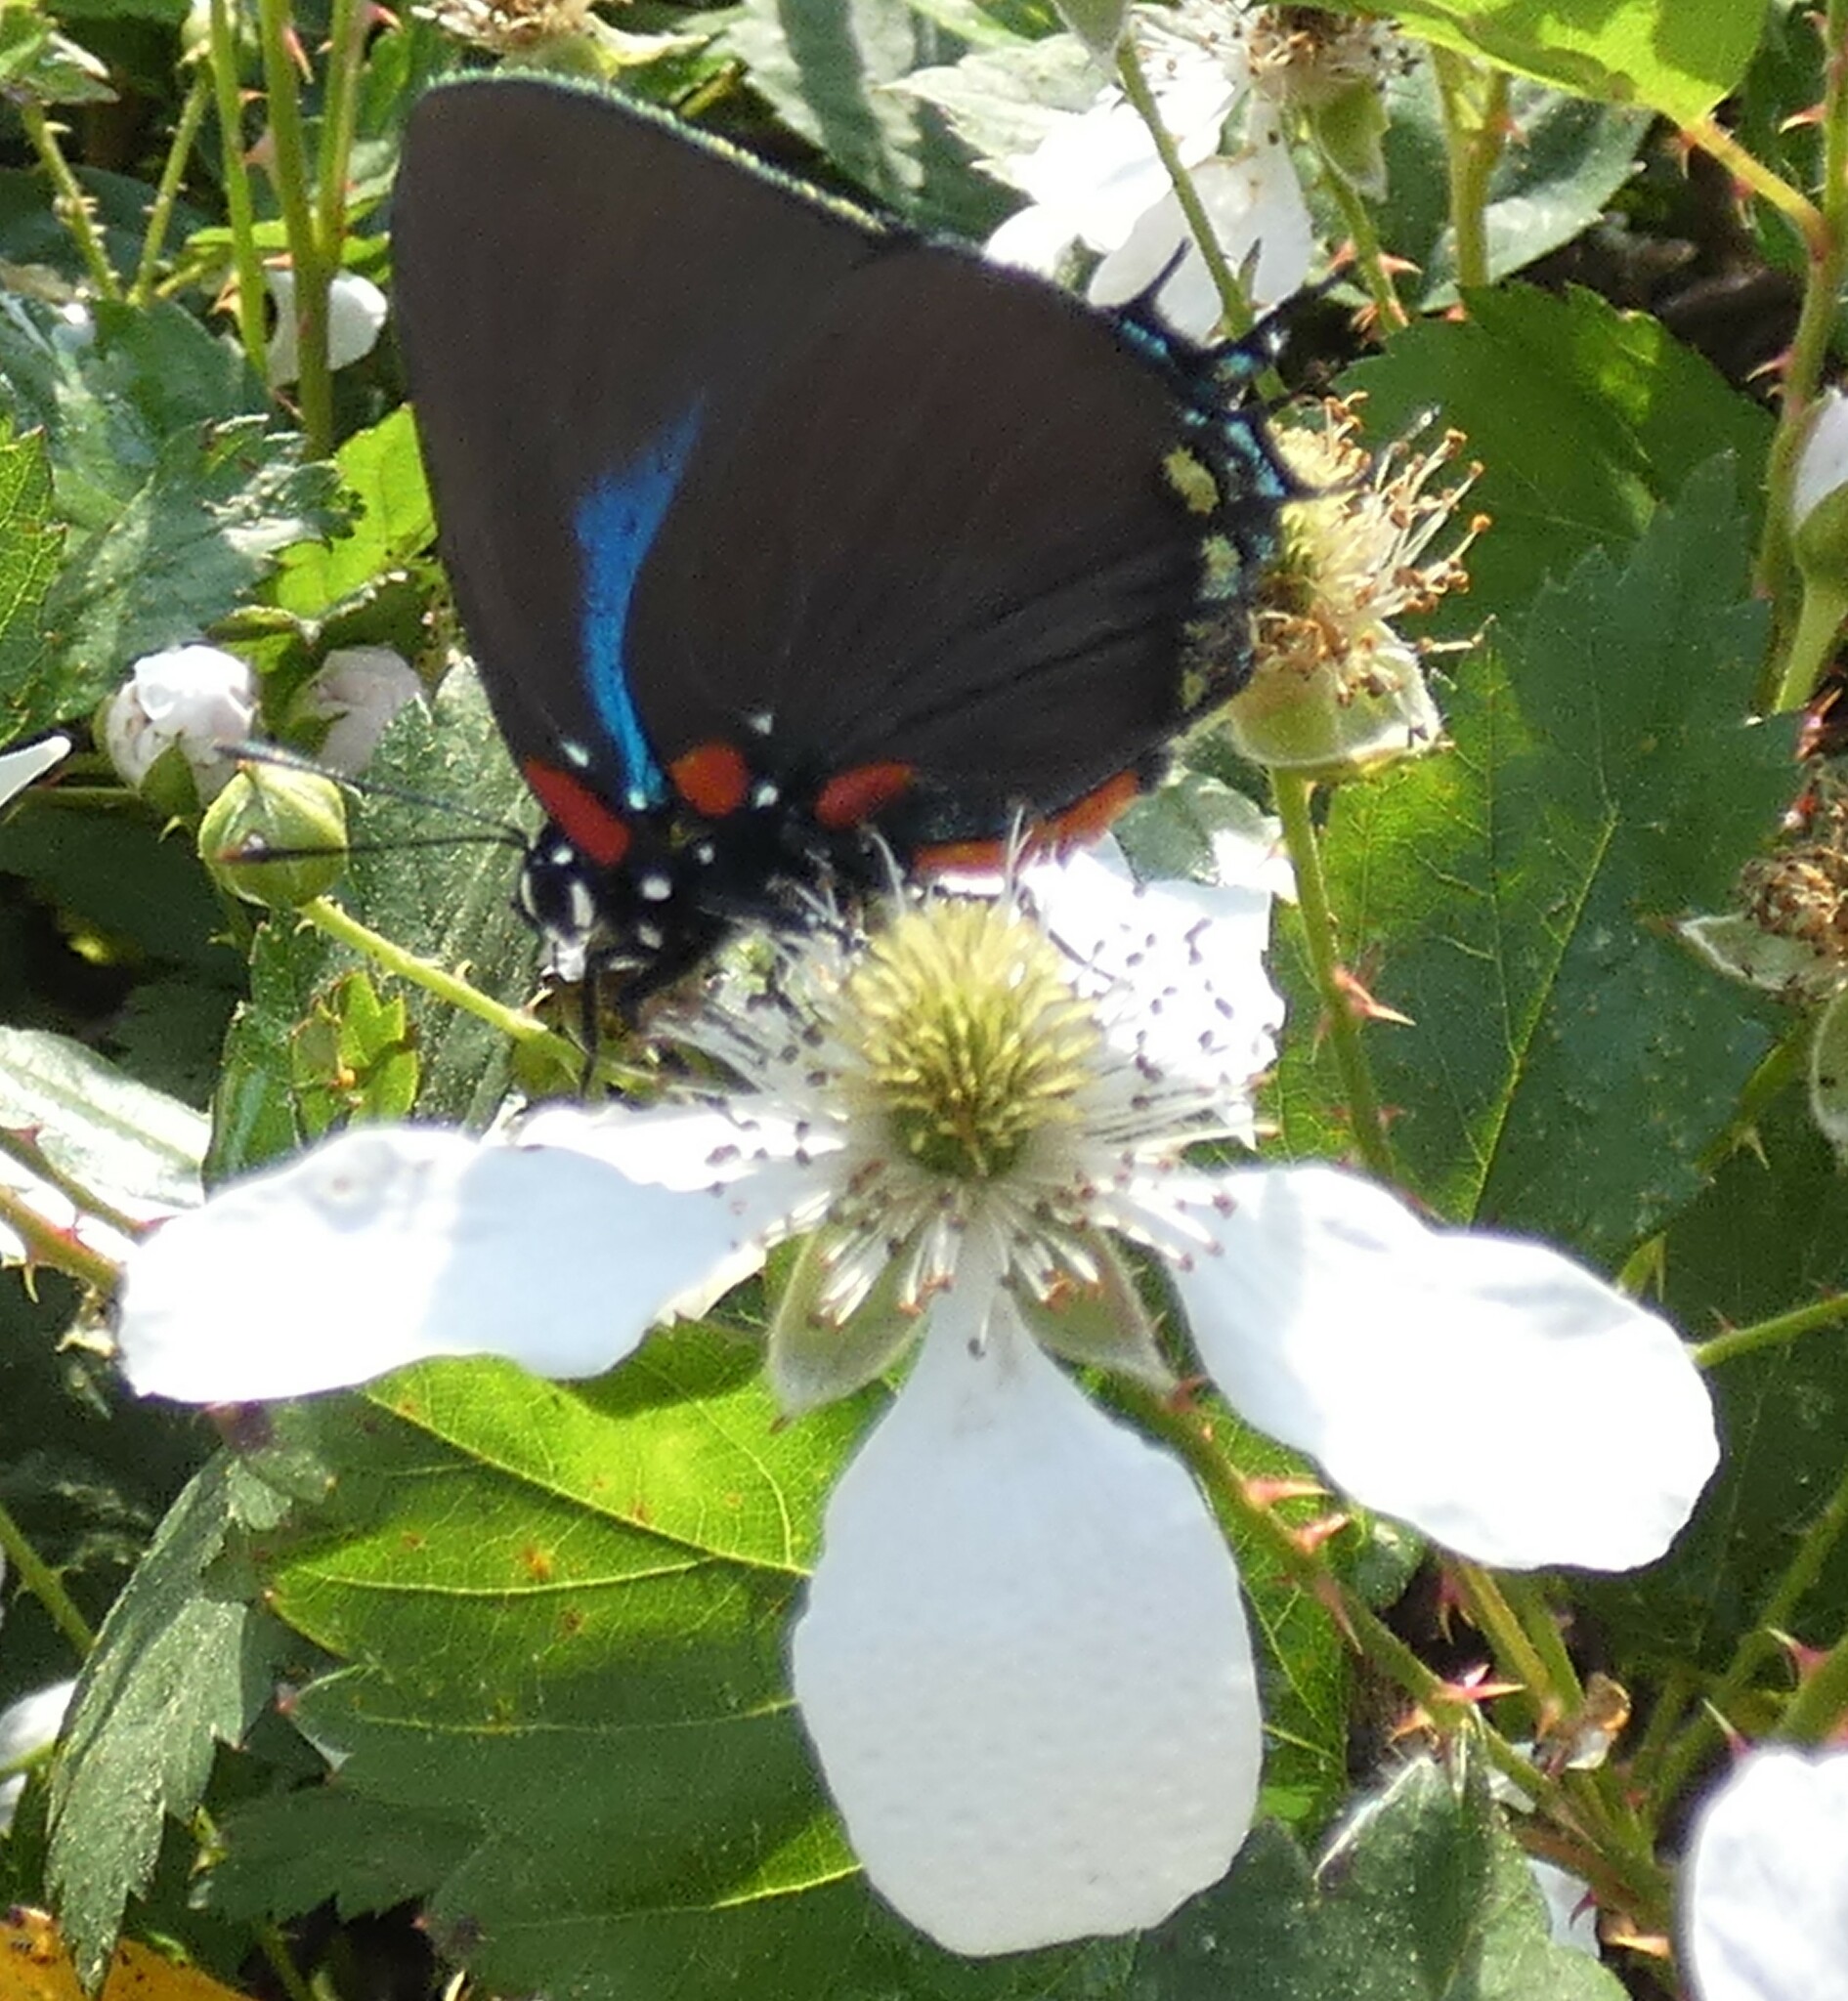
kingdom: Animalia
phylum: Arthropoda
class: Insecta
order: Lepidoptera
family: Lycaenidae
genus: Atlides
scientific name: Atlides halesus
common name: Great purple hairstreak
